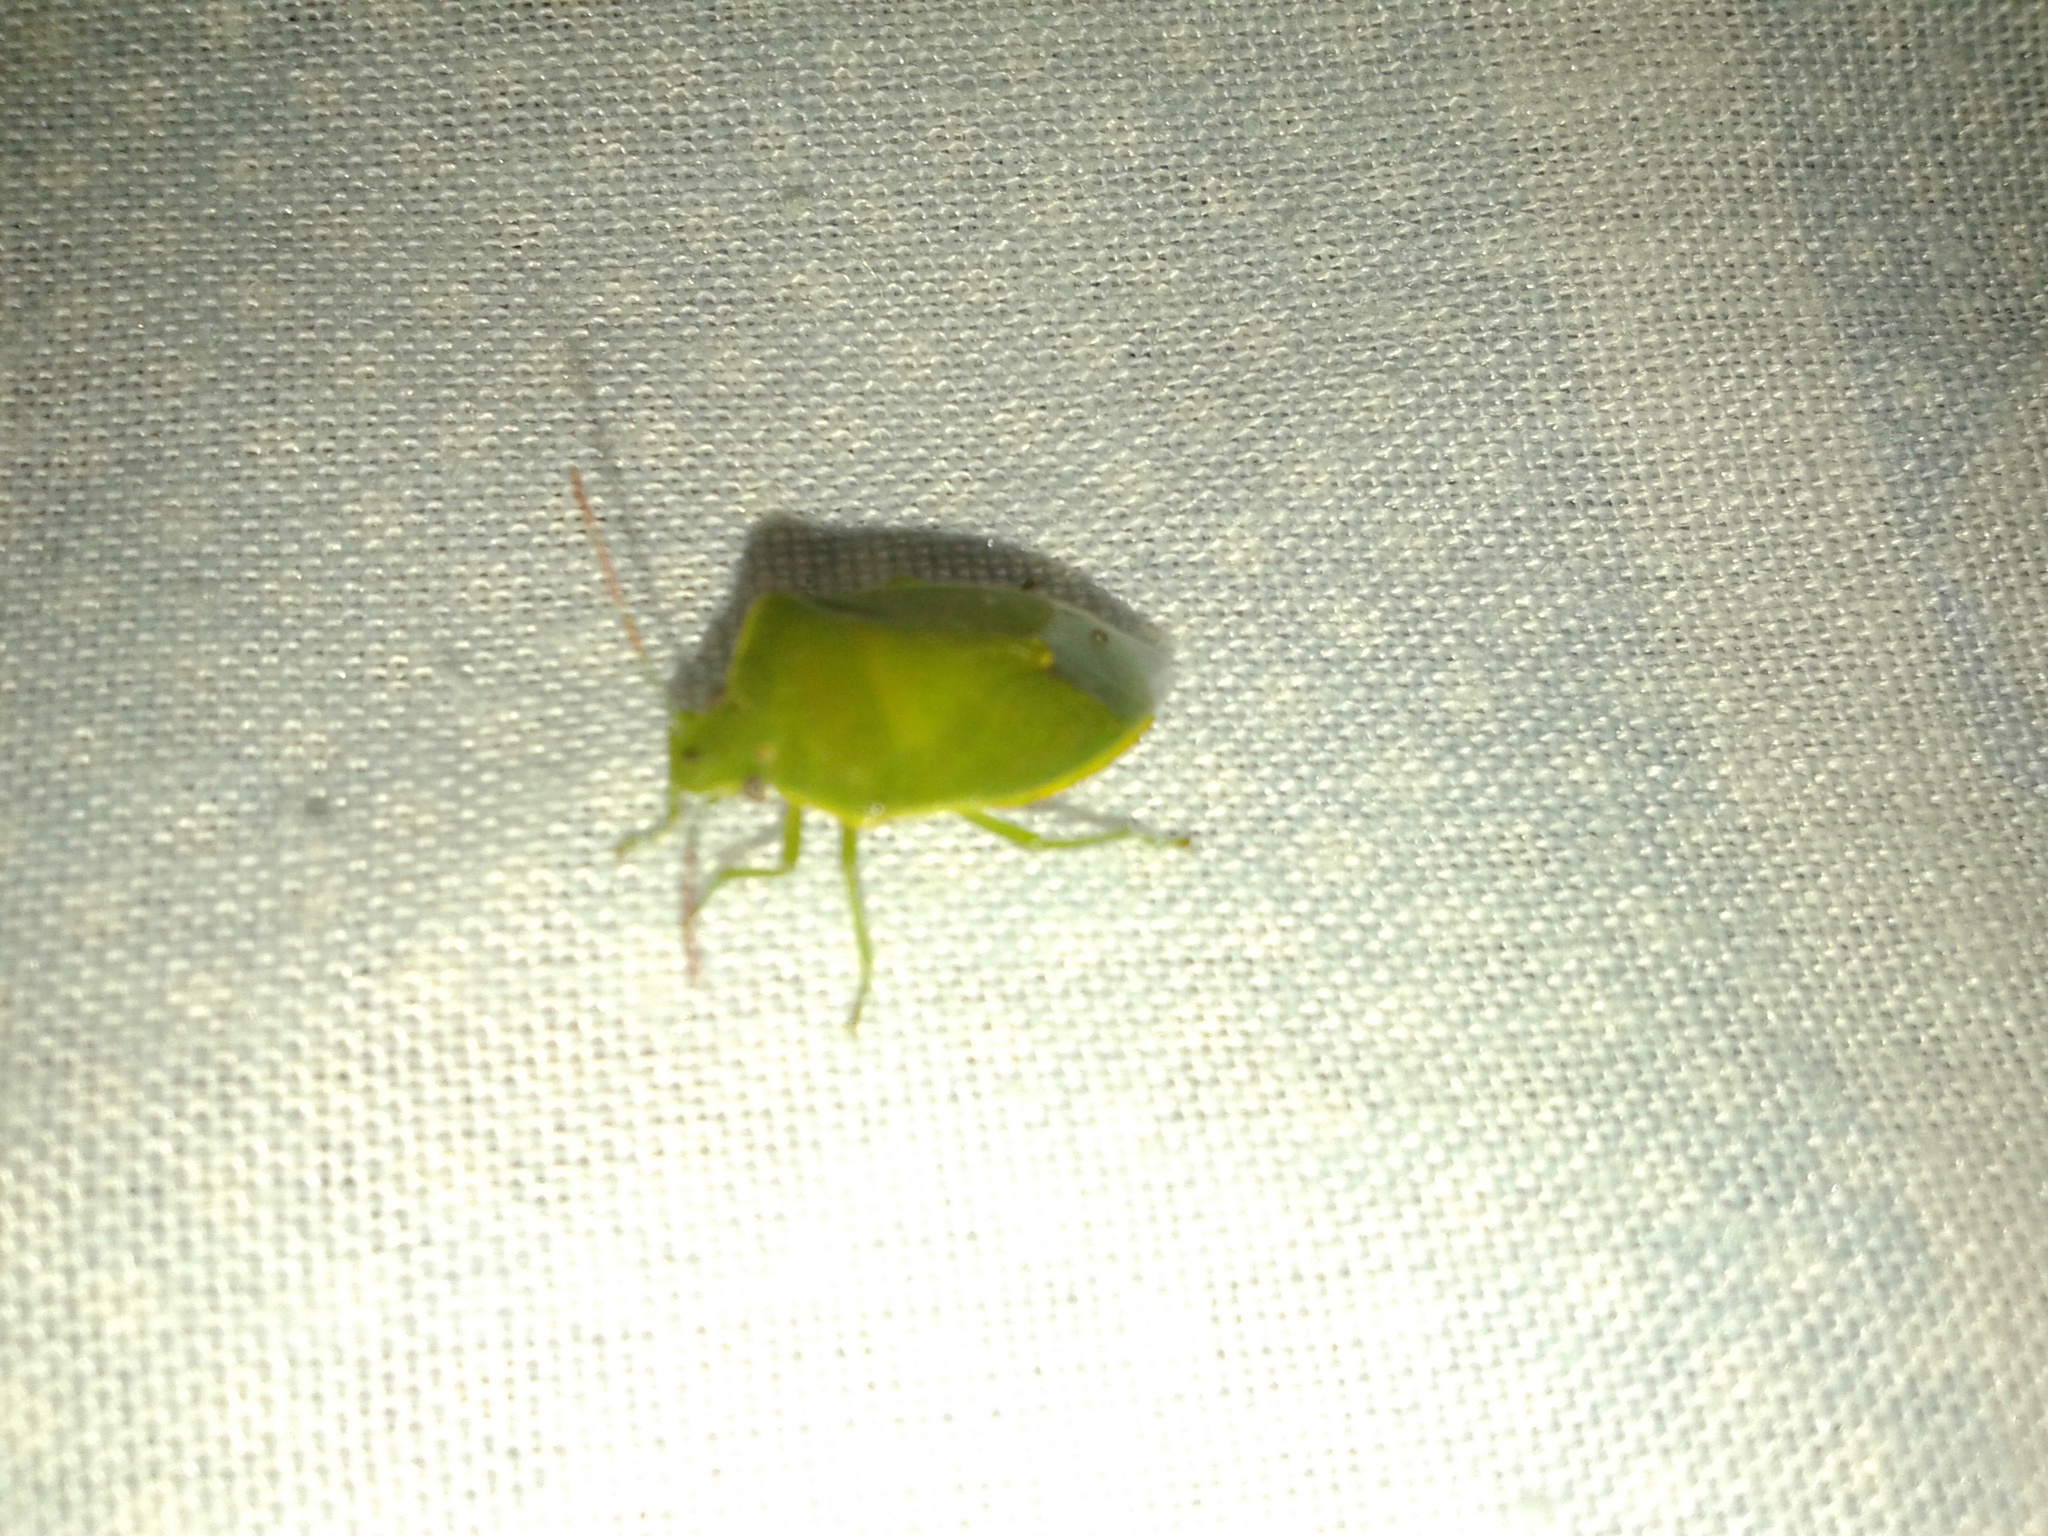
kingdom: Animalia
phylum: Arthropoda
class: Insecta
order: Hemiptera
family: Pentatomidae
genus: Acrosternum
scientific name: Acrosternum heegeri
